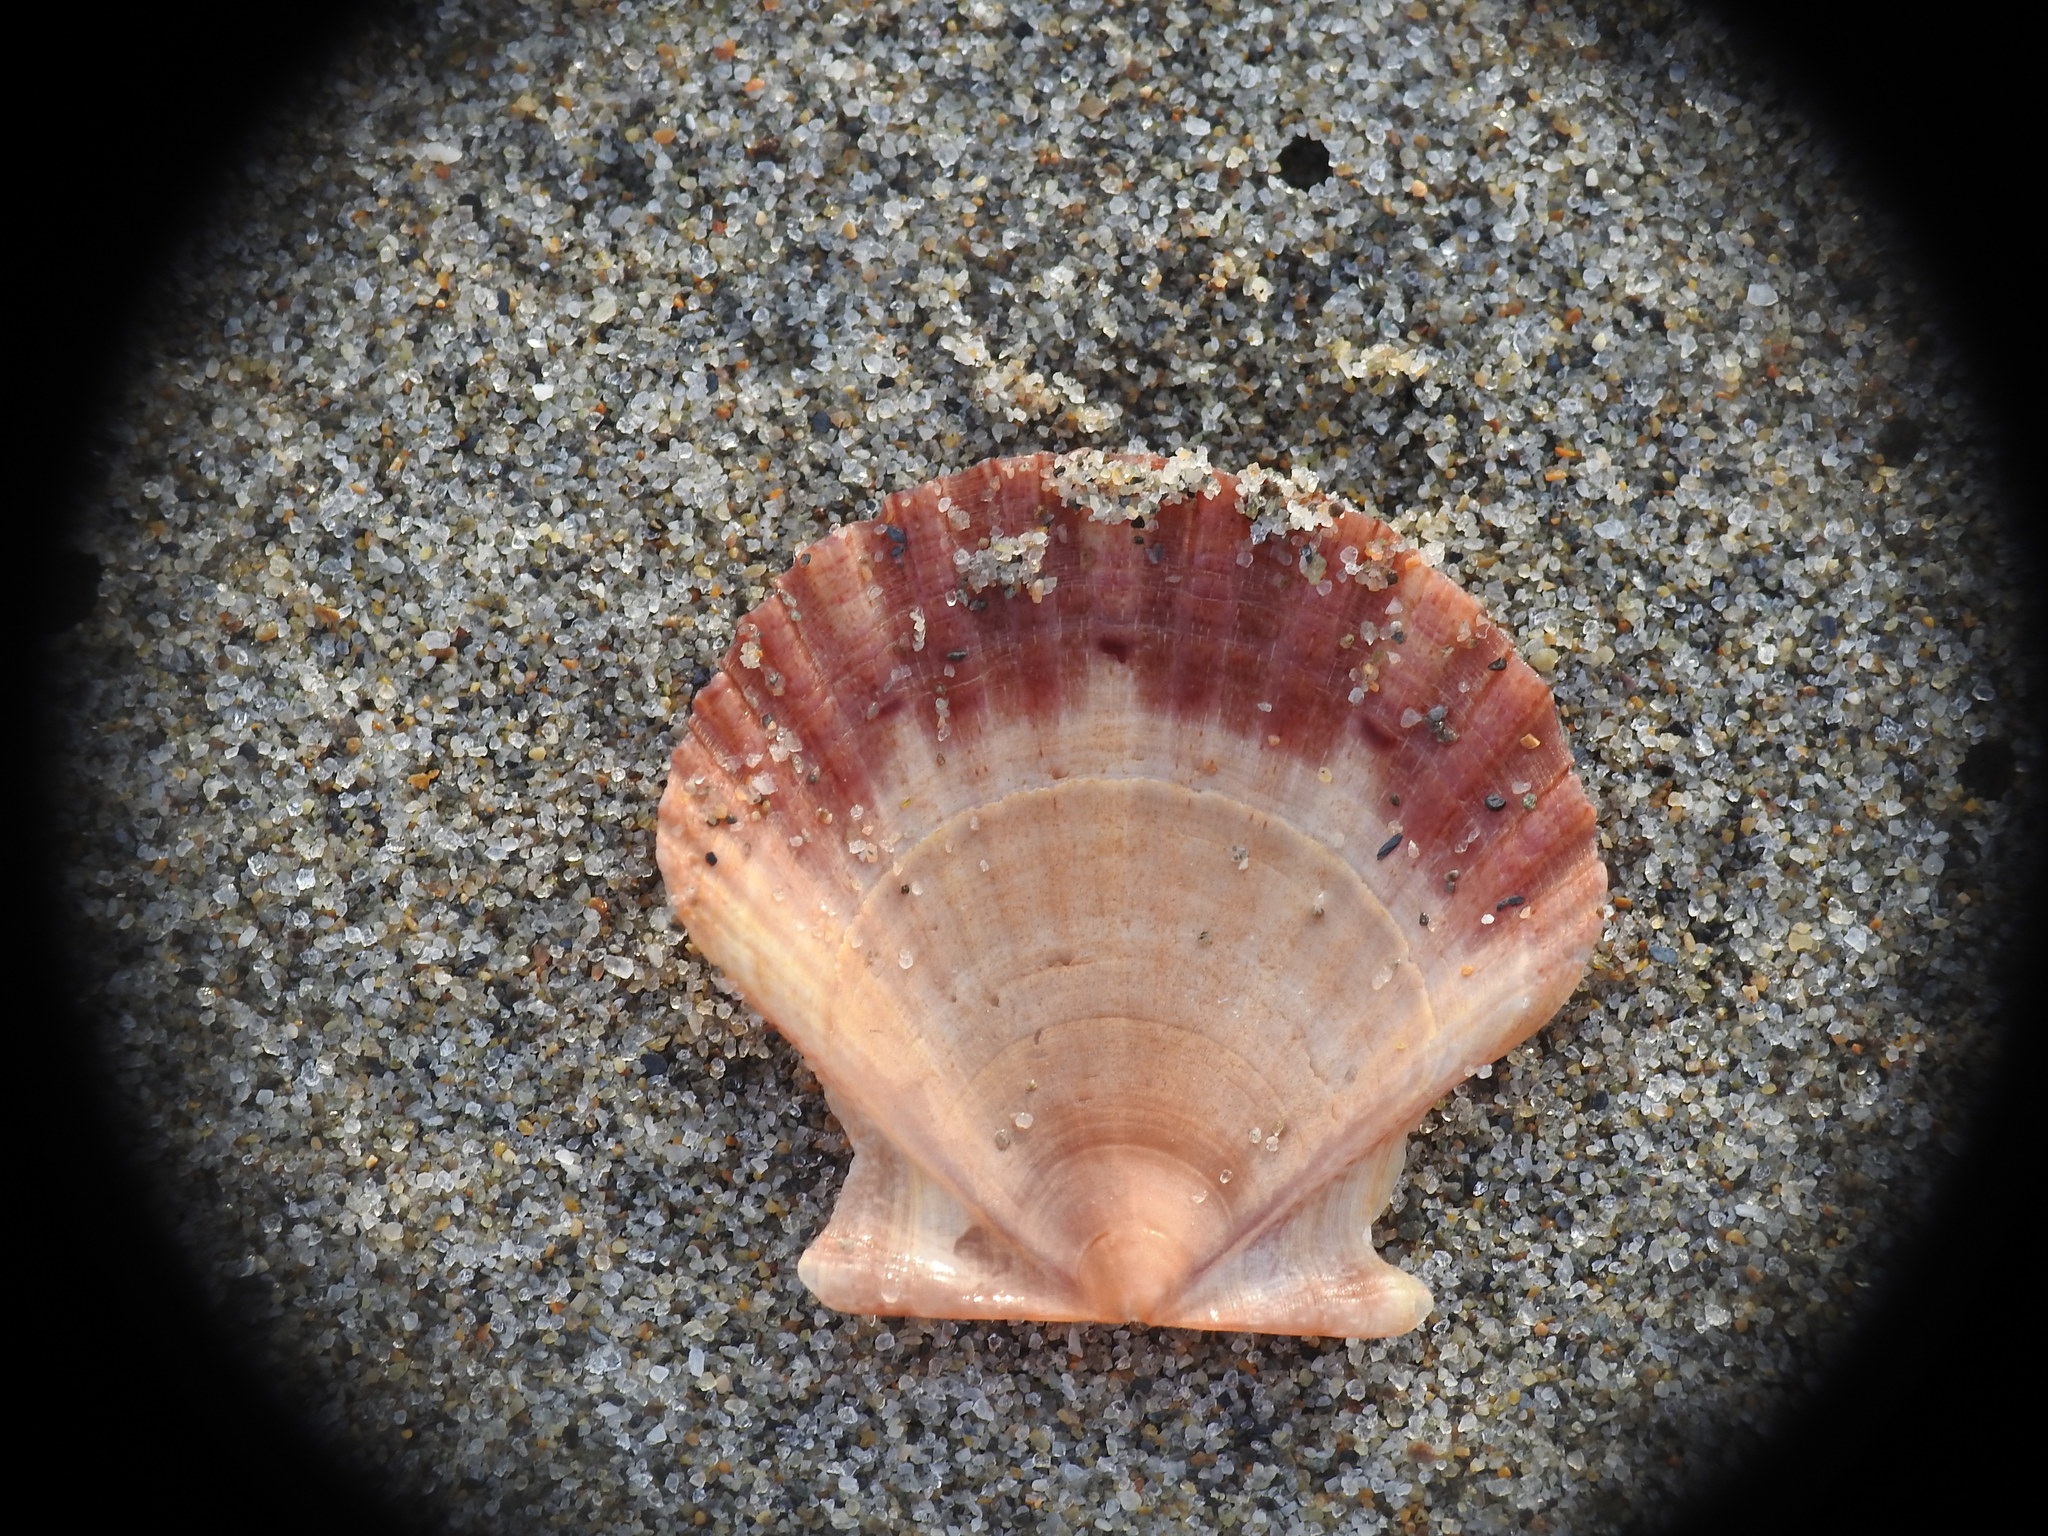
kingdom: Animalia
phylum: Mollusca
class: Bivalvia
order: Pectinida
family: Pectinidae
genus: Pecten
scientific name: Pecten jacobaeus
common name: St.james's scallop
